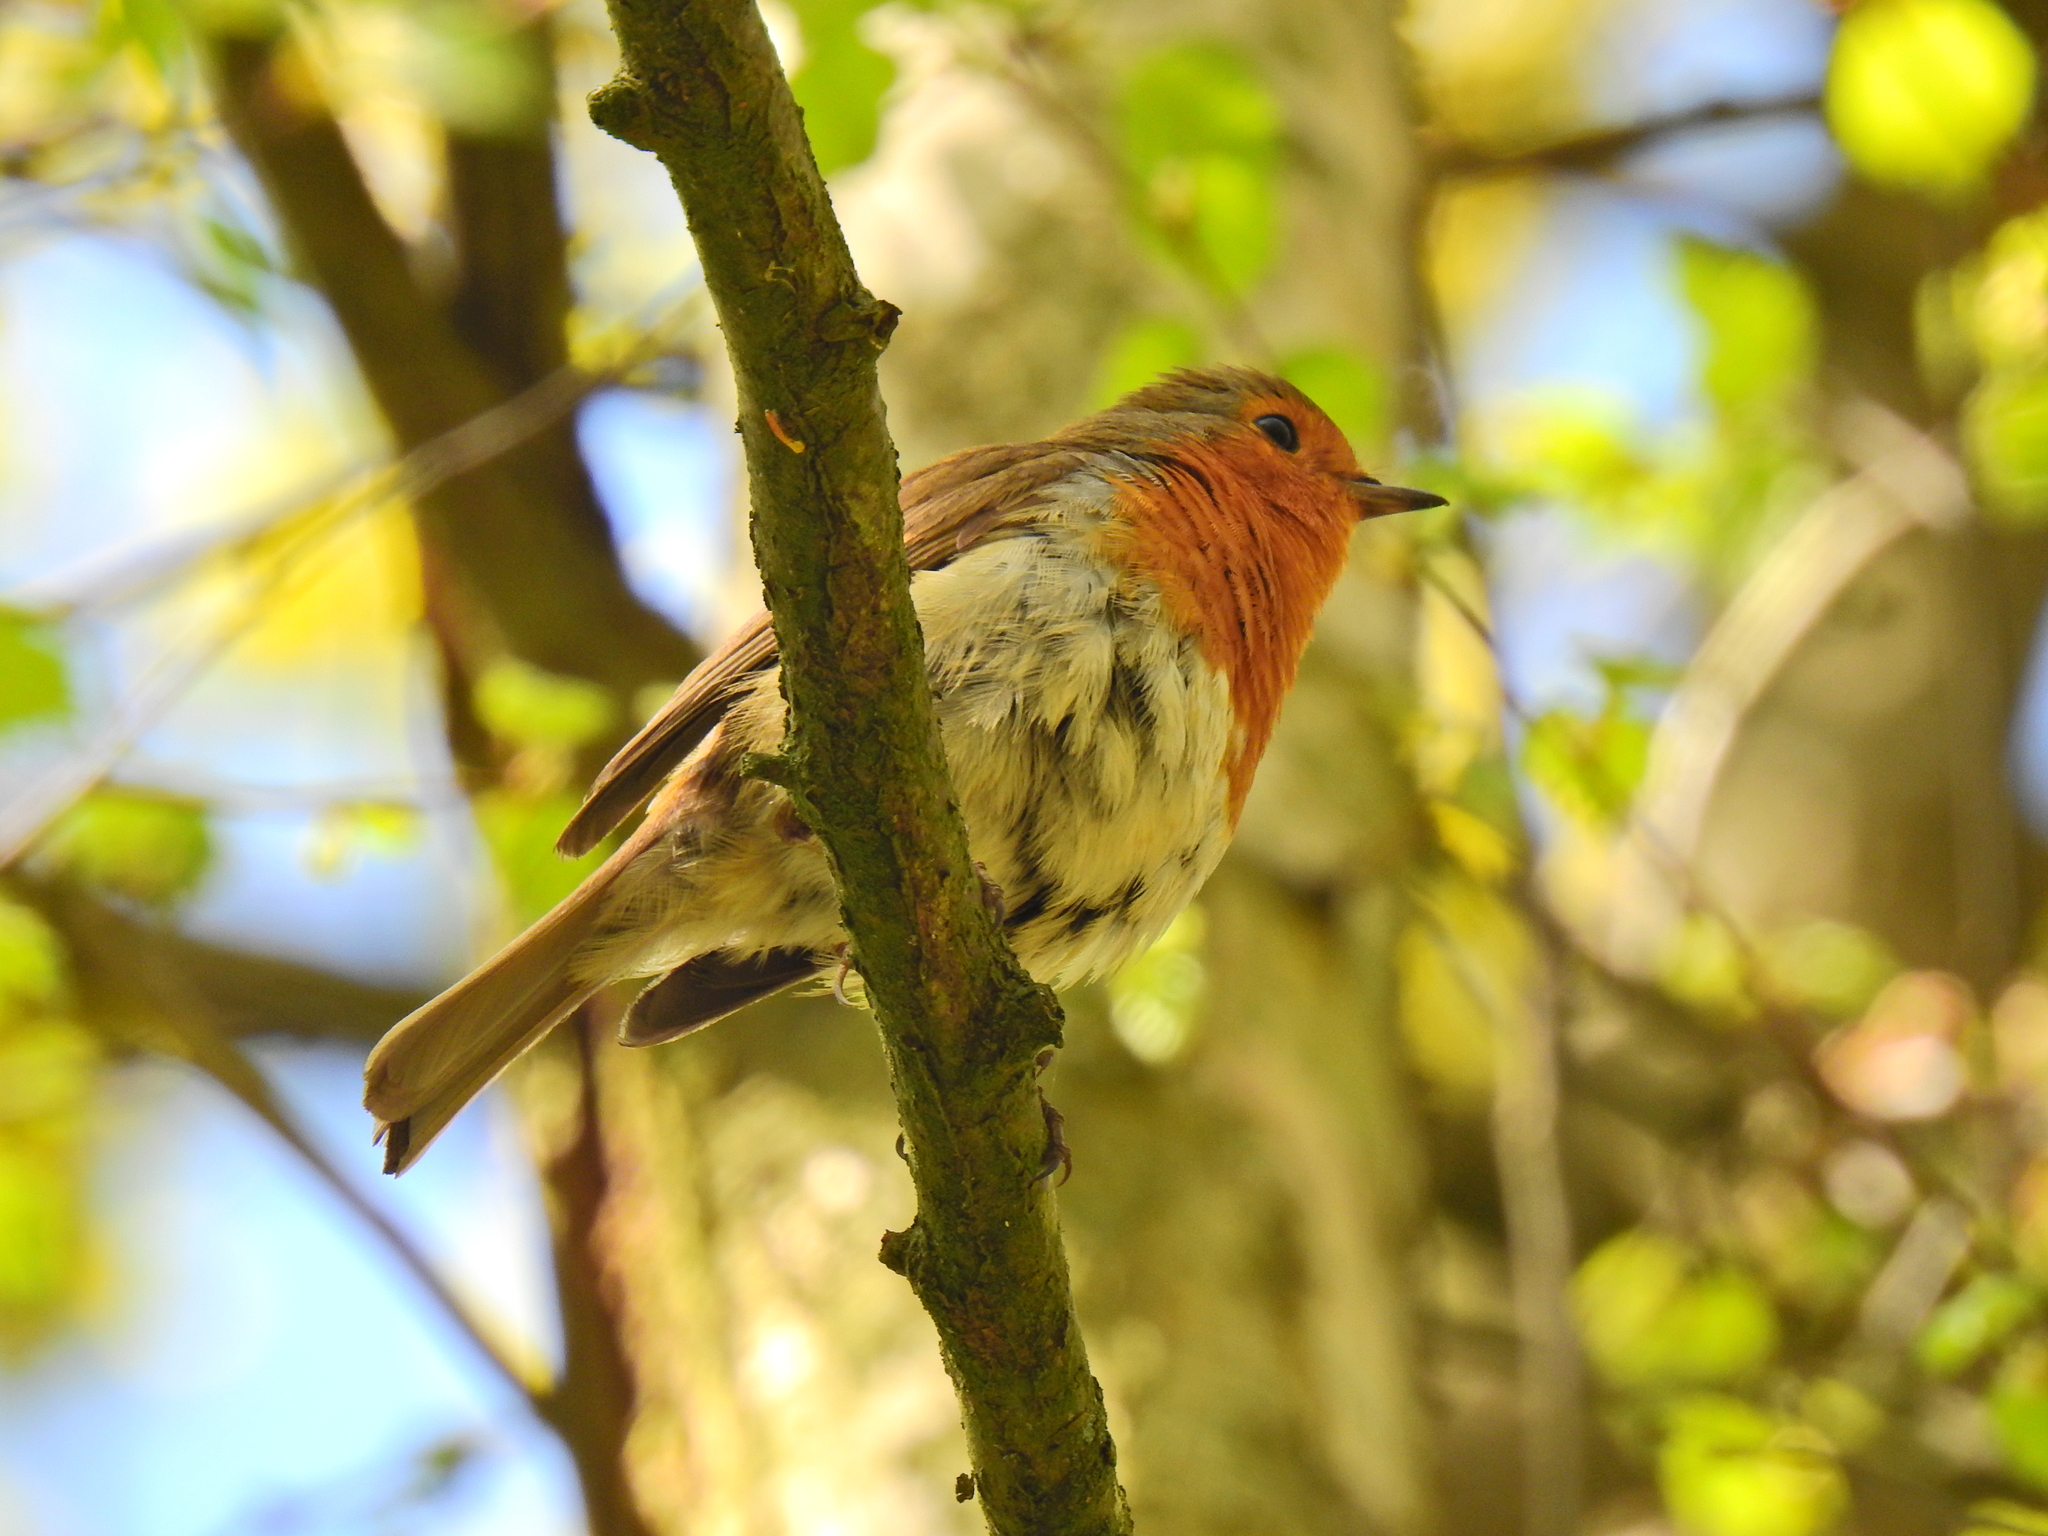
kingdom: Animalia
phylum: Chordata
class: Aves
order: Passeriformes
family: Muscicapidae
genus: Erithacus
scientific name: Erithacus rubecula
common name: European robin
